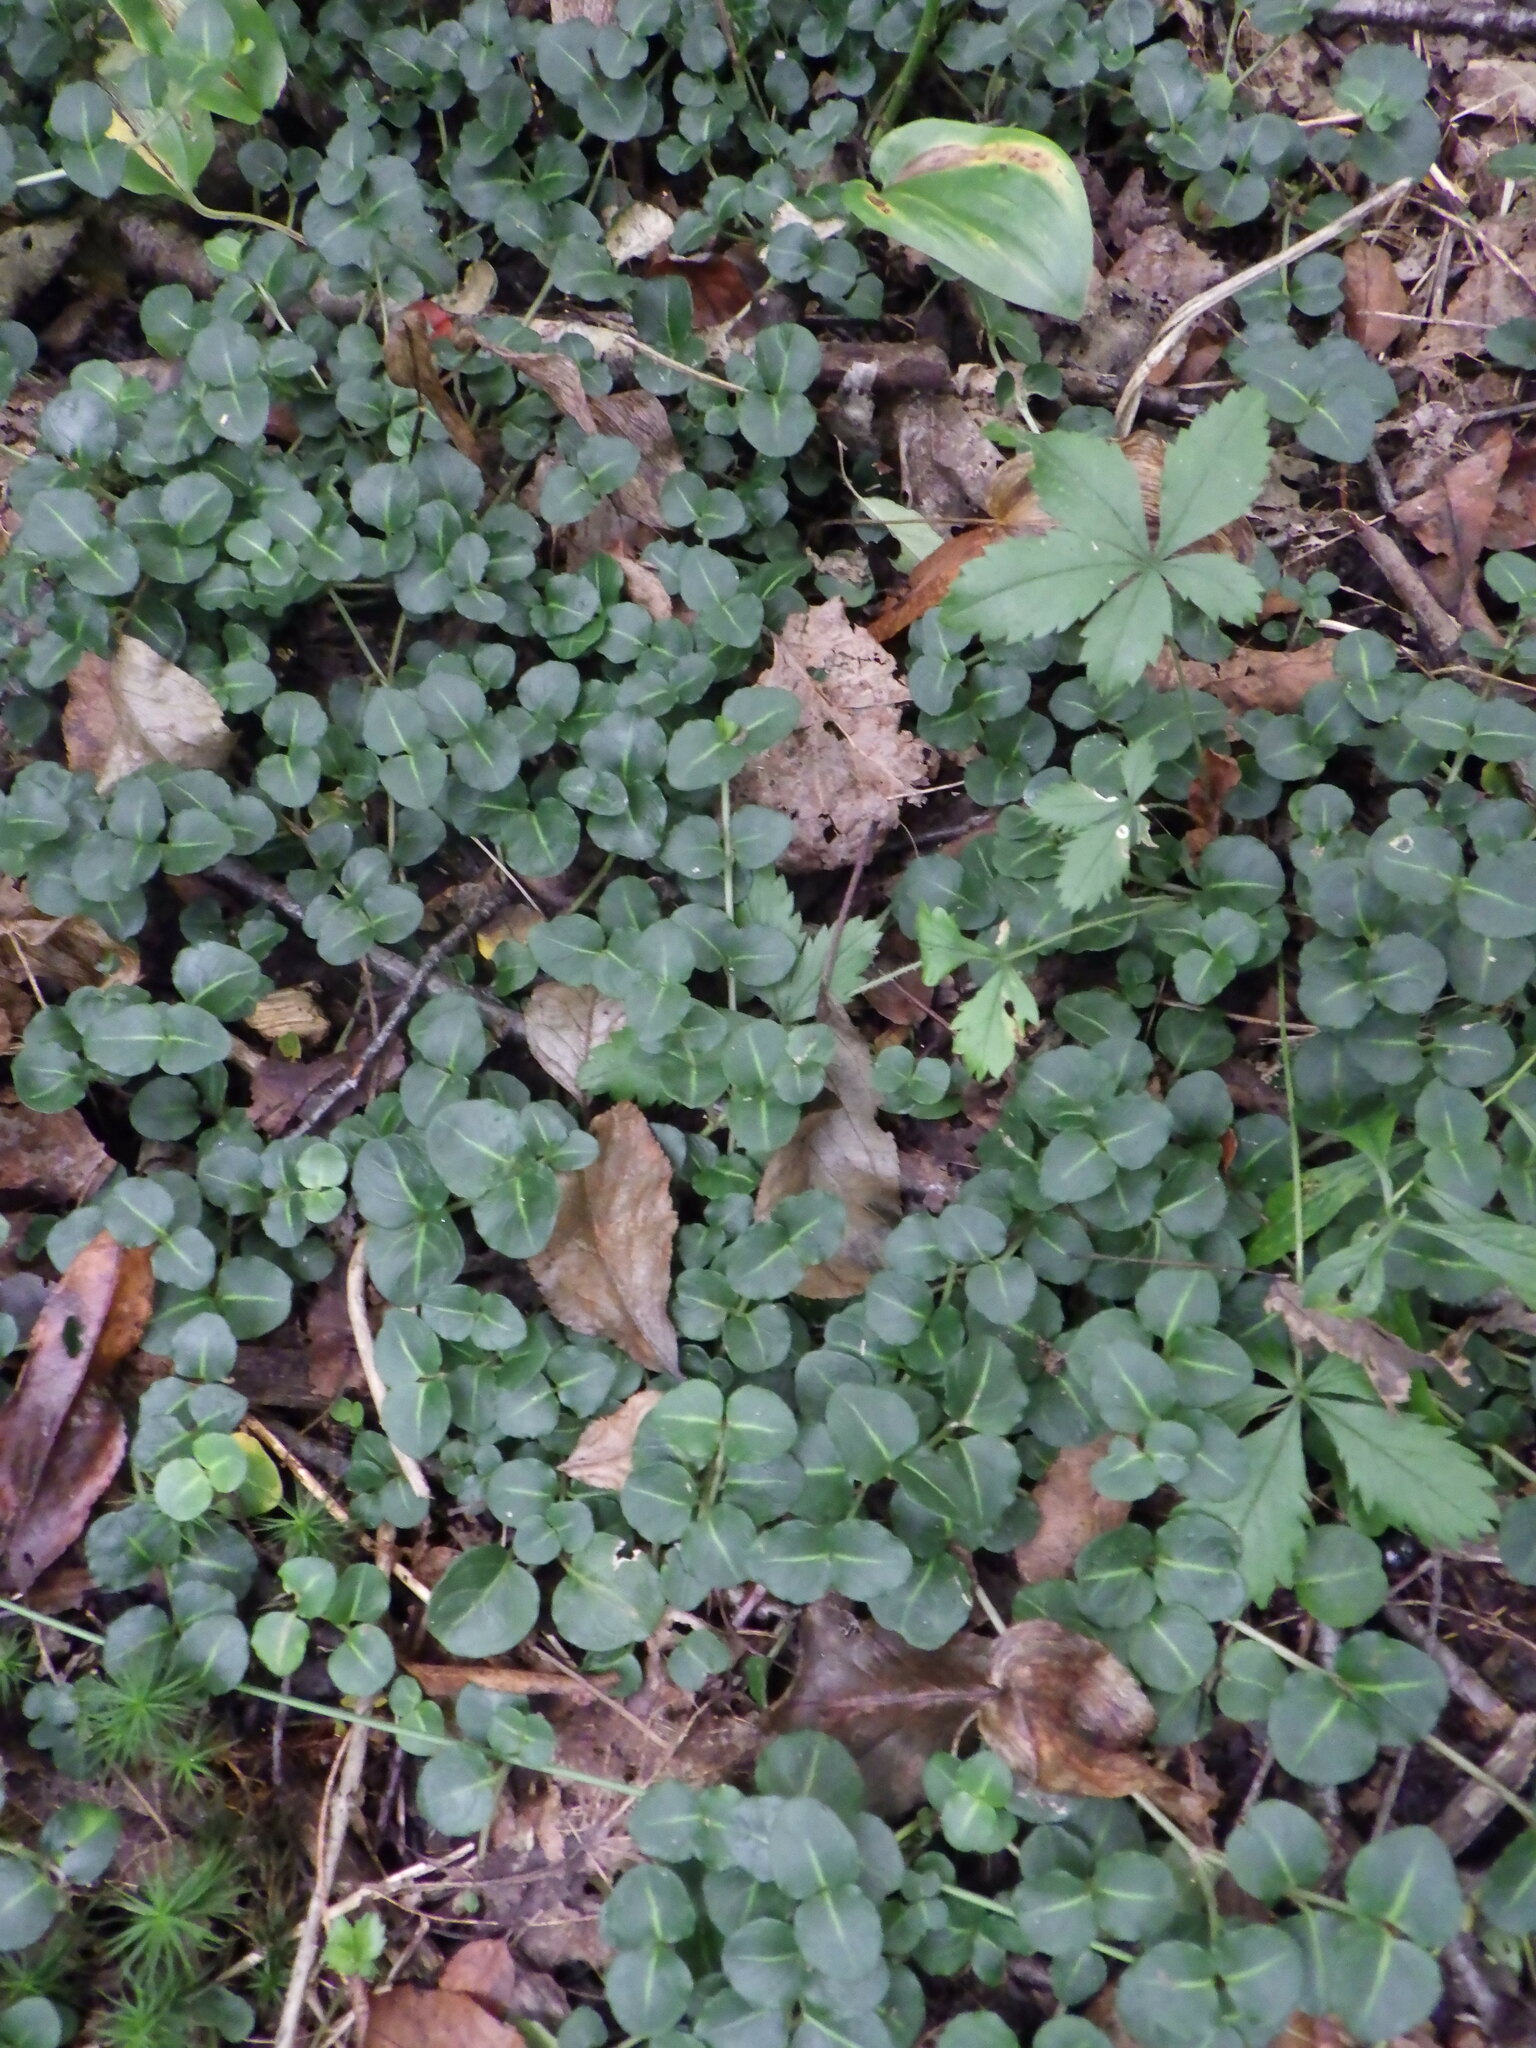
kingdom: Plantae
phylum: Tracheophyta
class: Magnoliopsida
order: Gentianales
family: Rubiaceae
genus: Mitchella
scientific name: Mitchella repens
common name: Partridge-berry
